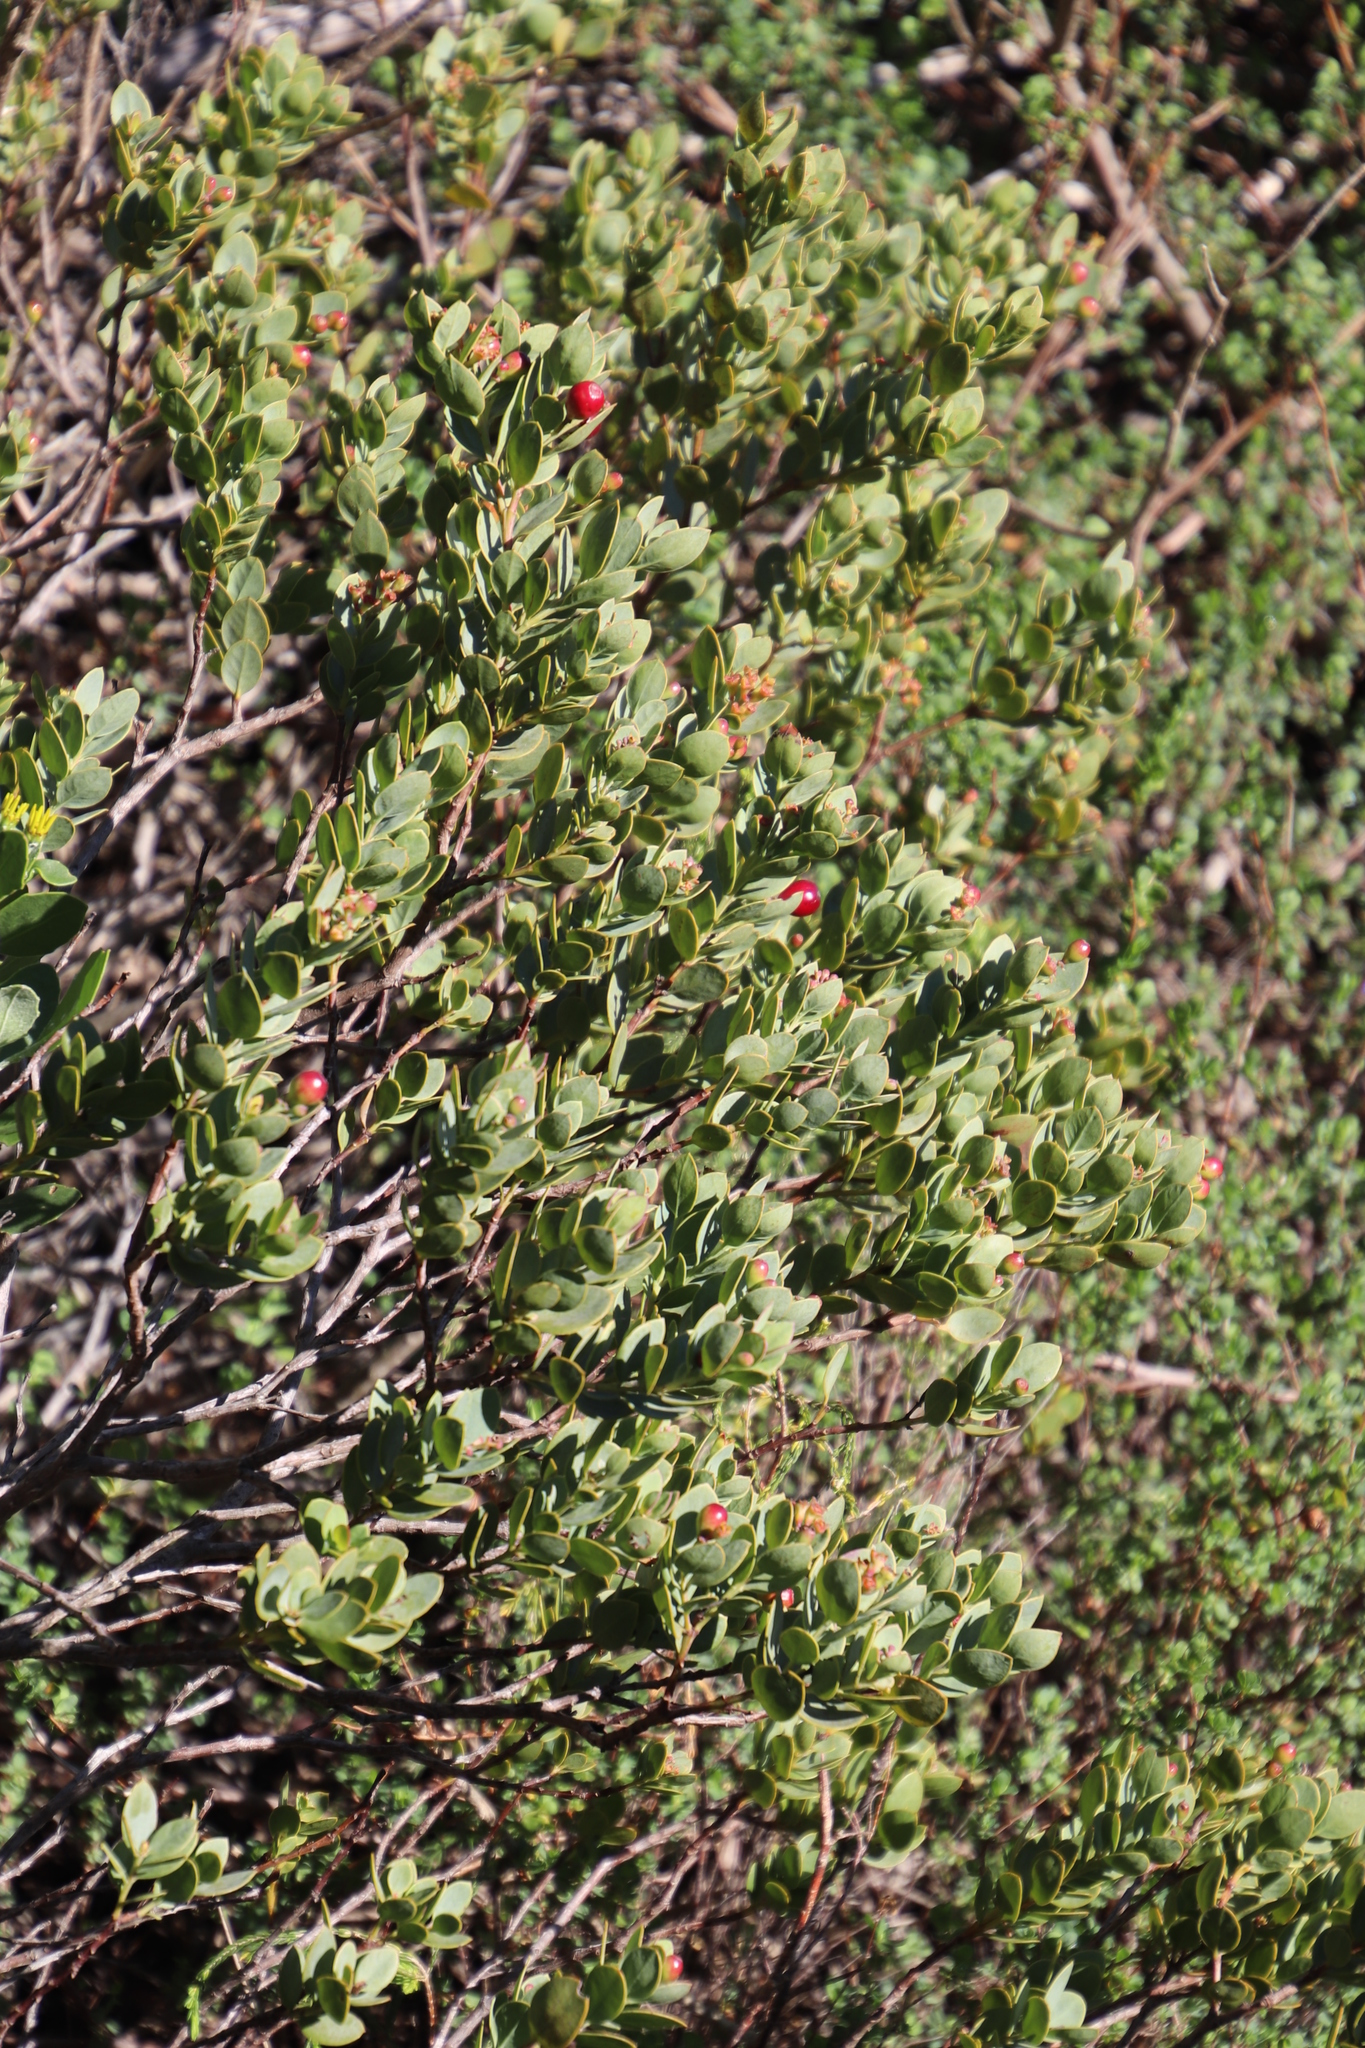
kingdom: Plantae
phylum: Tracheophyta
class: Magnoliopsida
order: Santalales
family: Santalaceae
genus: Osyris
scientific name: Osyris compressa
